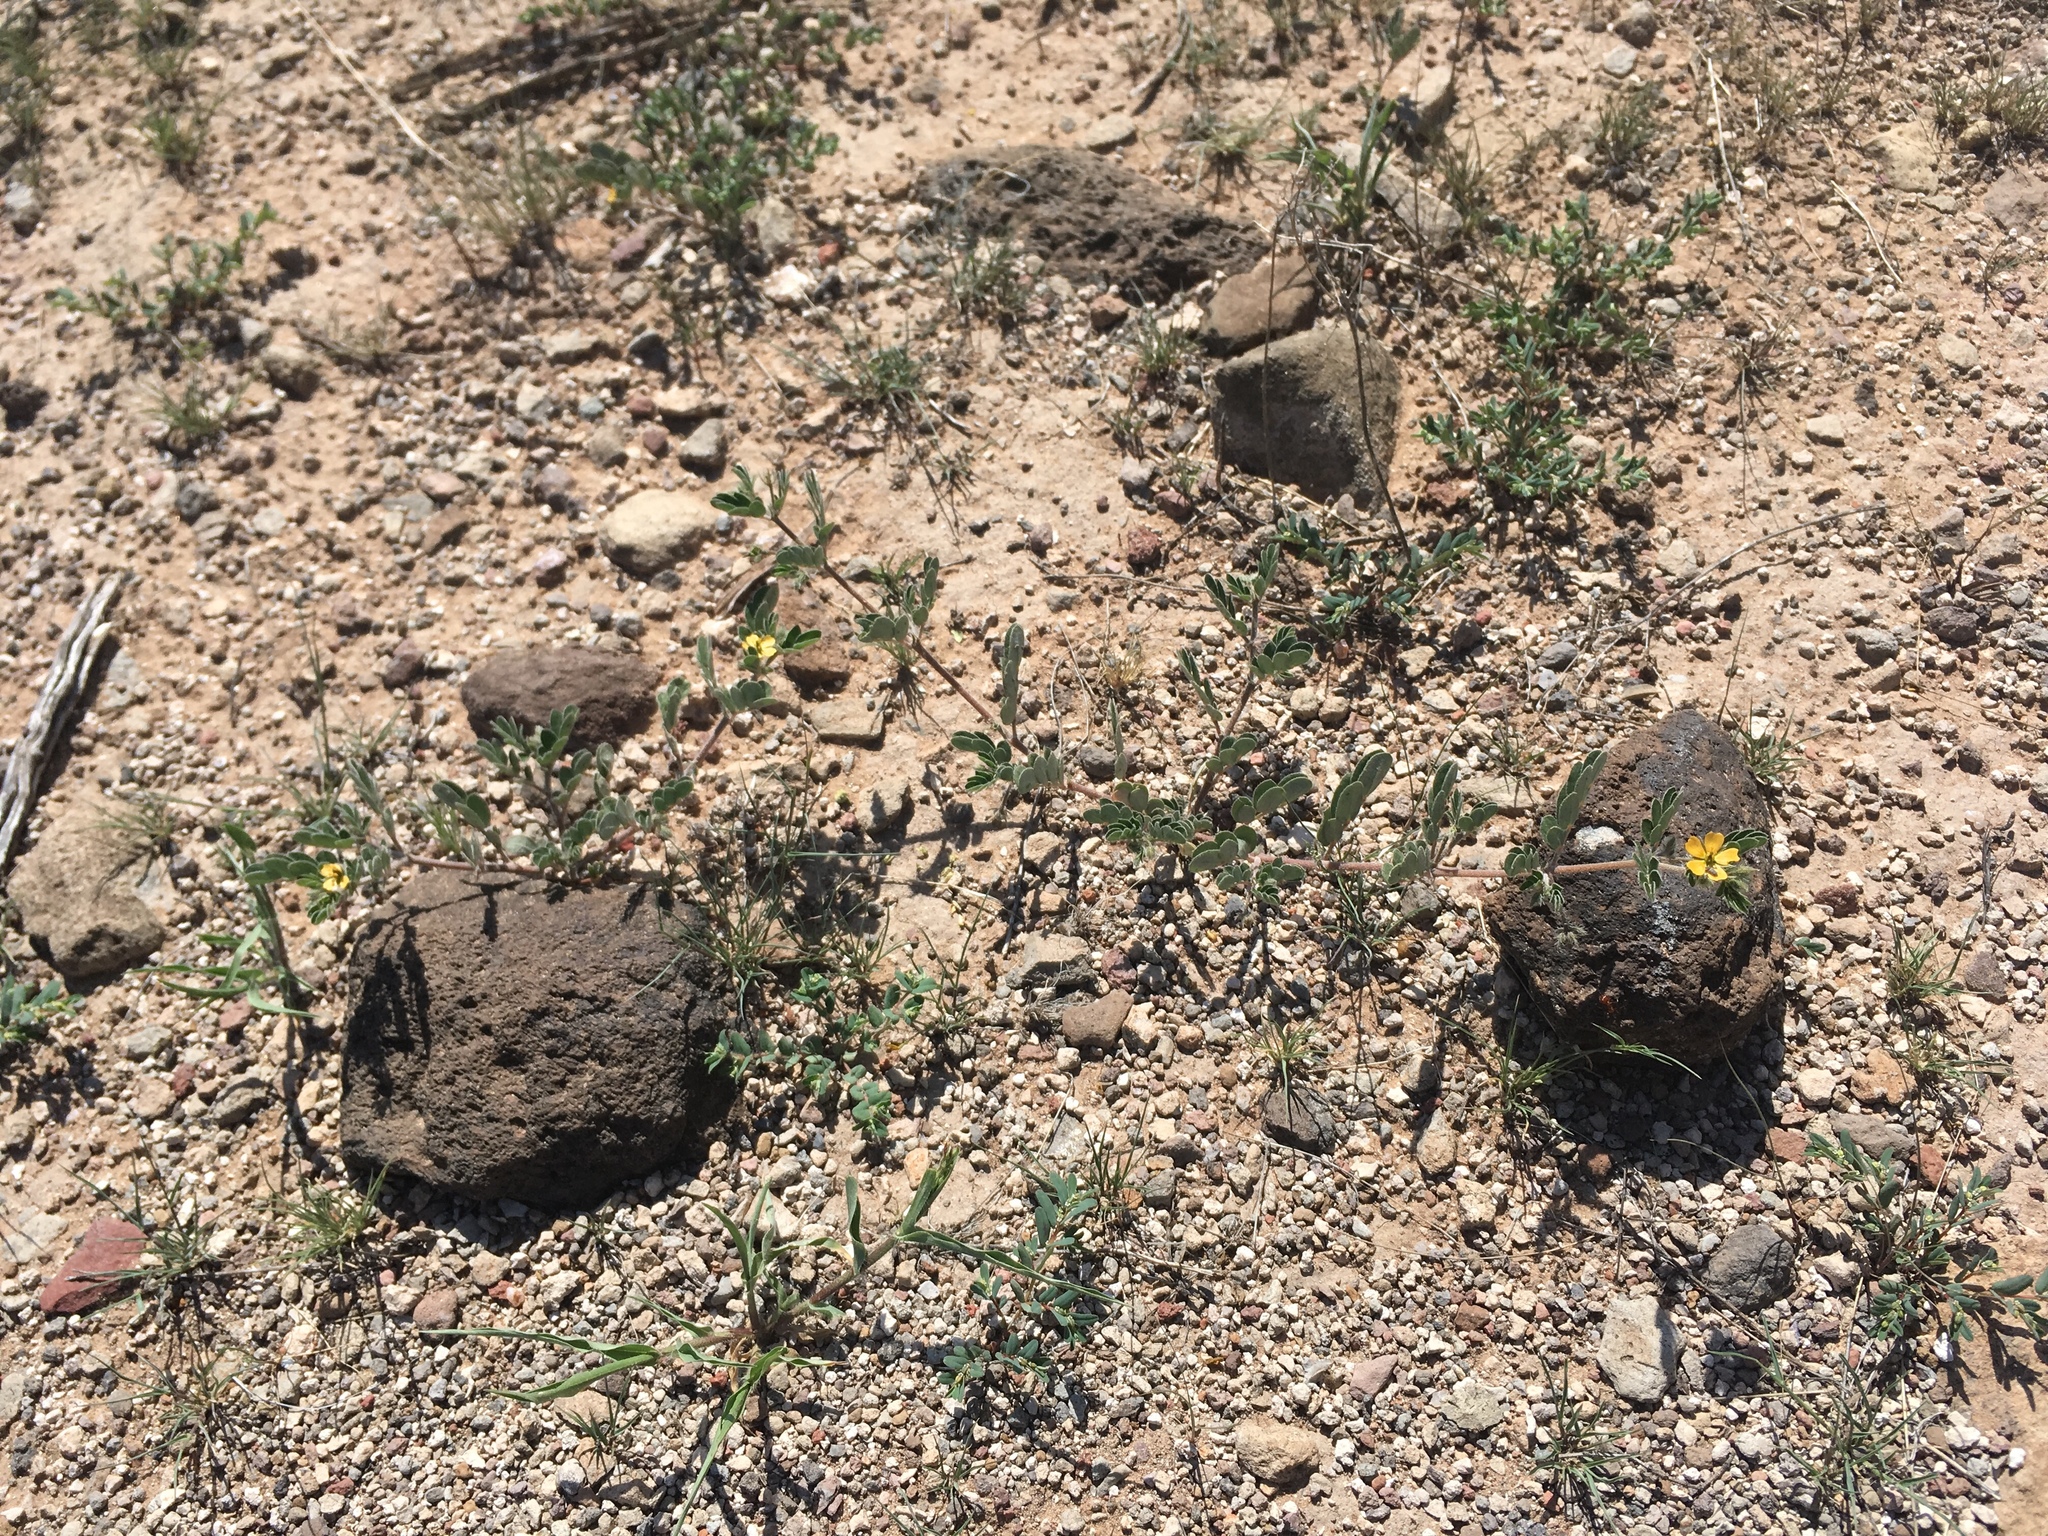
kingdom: Plantae
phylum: Tracheophyta
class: Magnoliopsida
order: Zygophyllales
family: Zygophyllaceae
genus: Kallstroemia
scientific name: Kallstroemia parviflora
